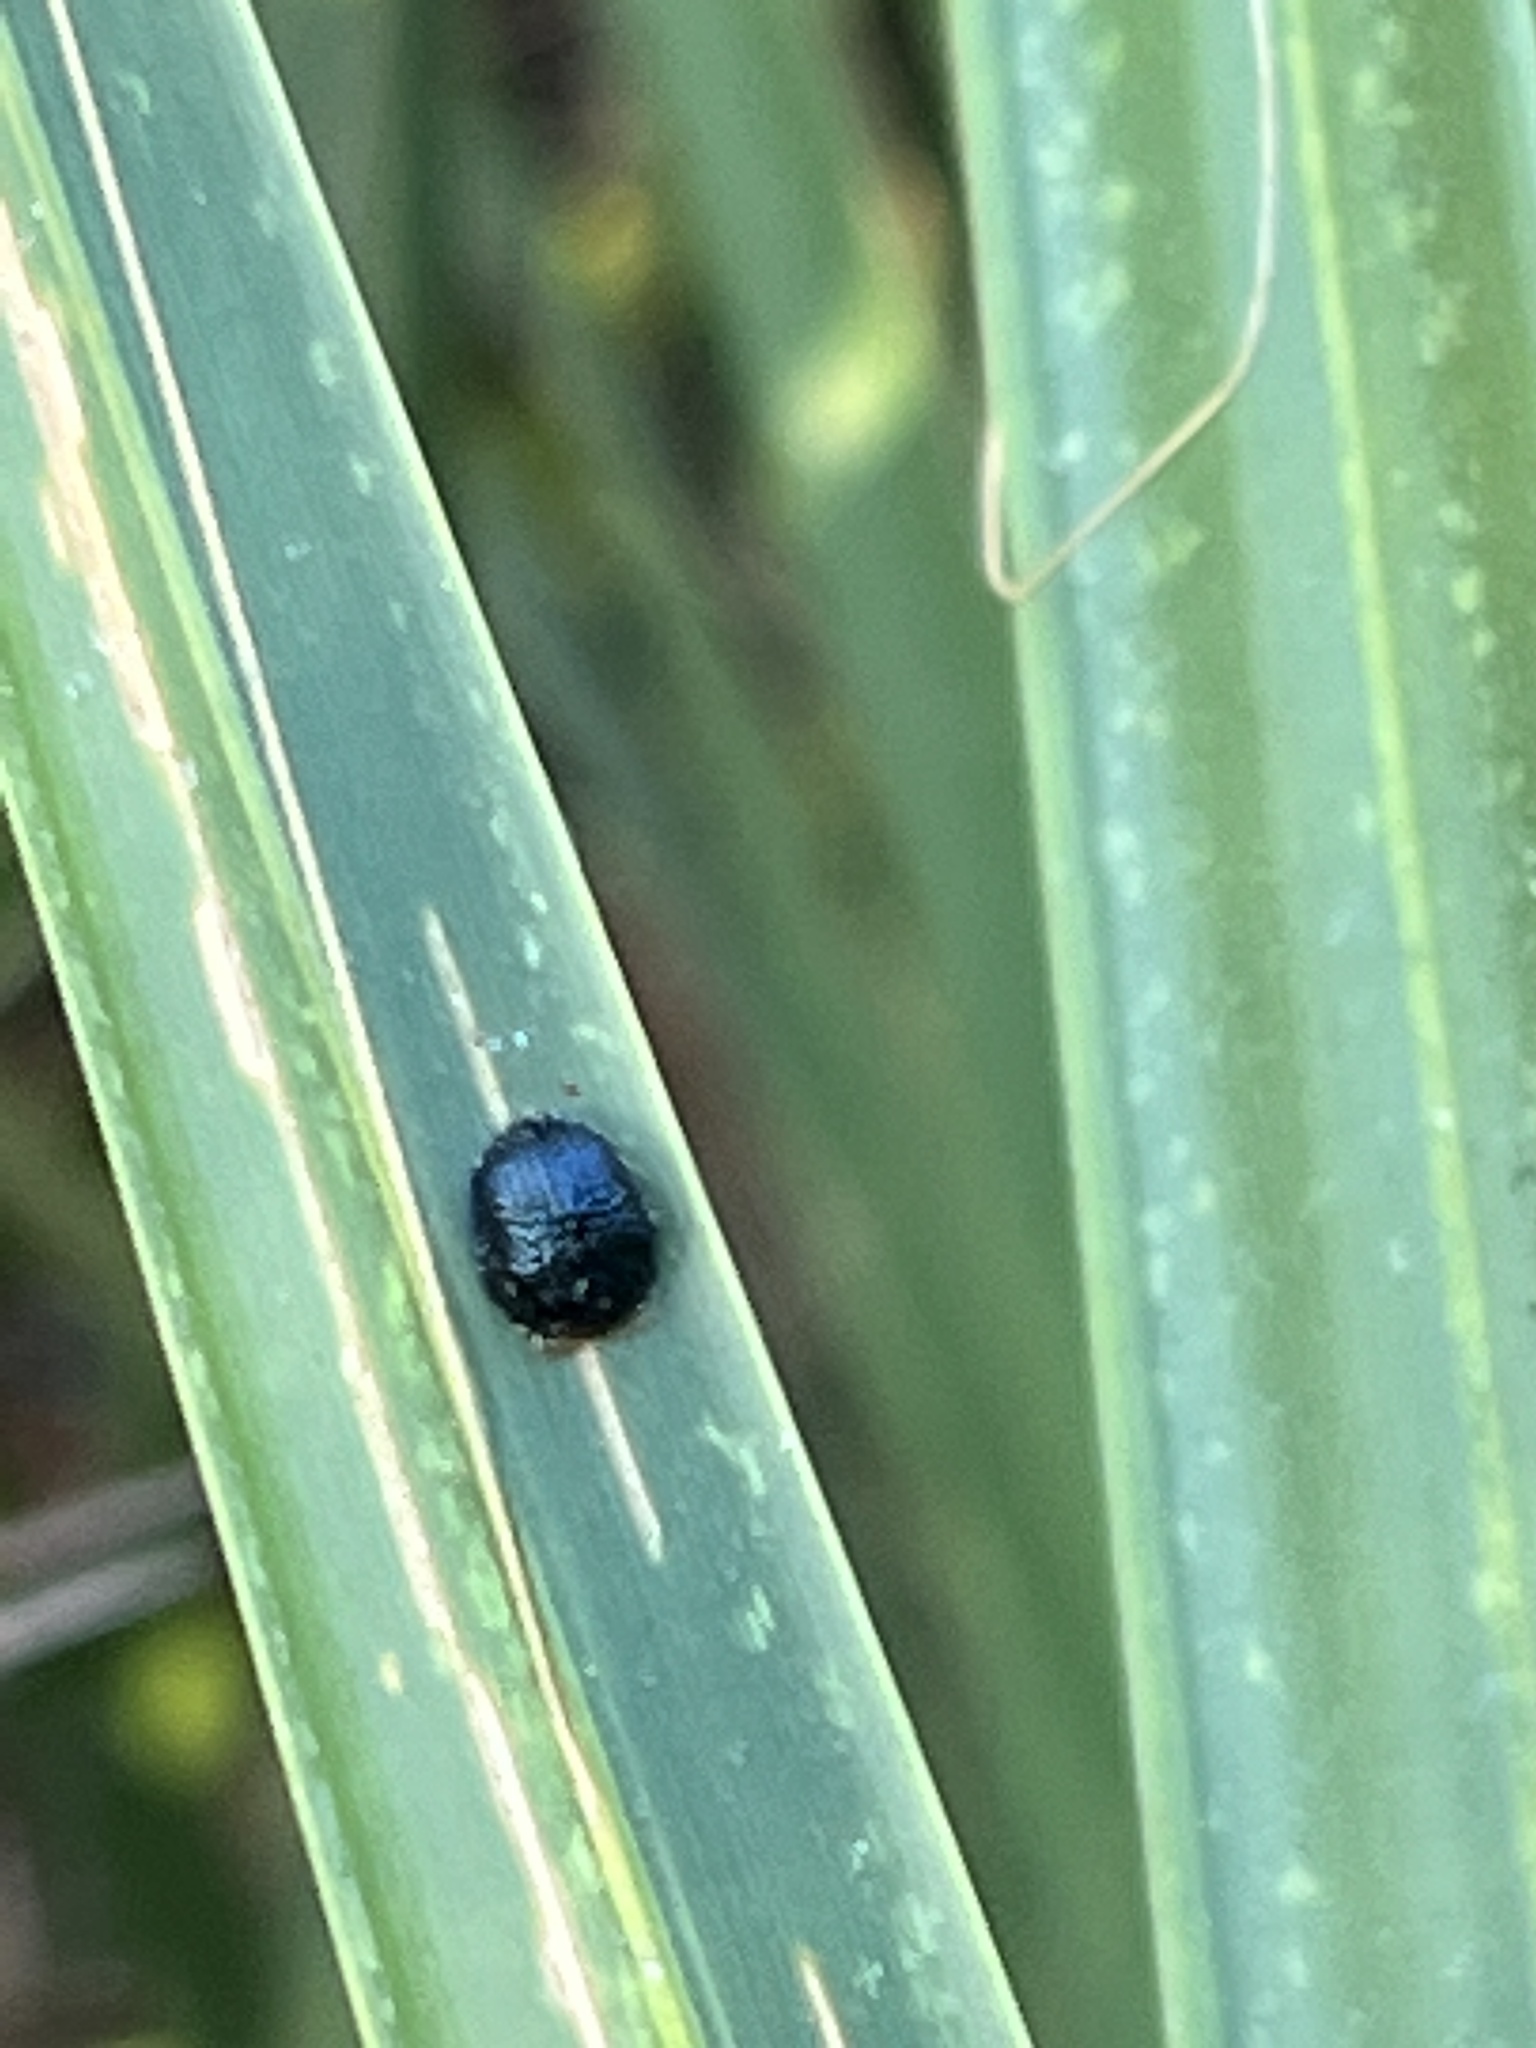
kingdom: Animalia
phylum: Arthropoda
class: Insecta
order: Coleoptera
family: Chrysomelidae
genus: Hemisphaerota
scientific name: Hemisphaerota cyanea
